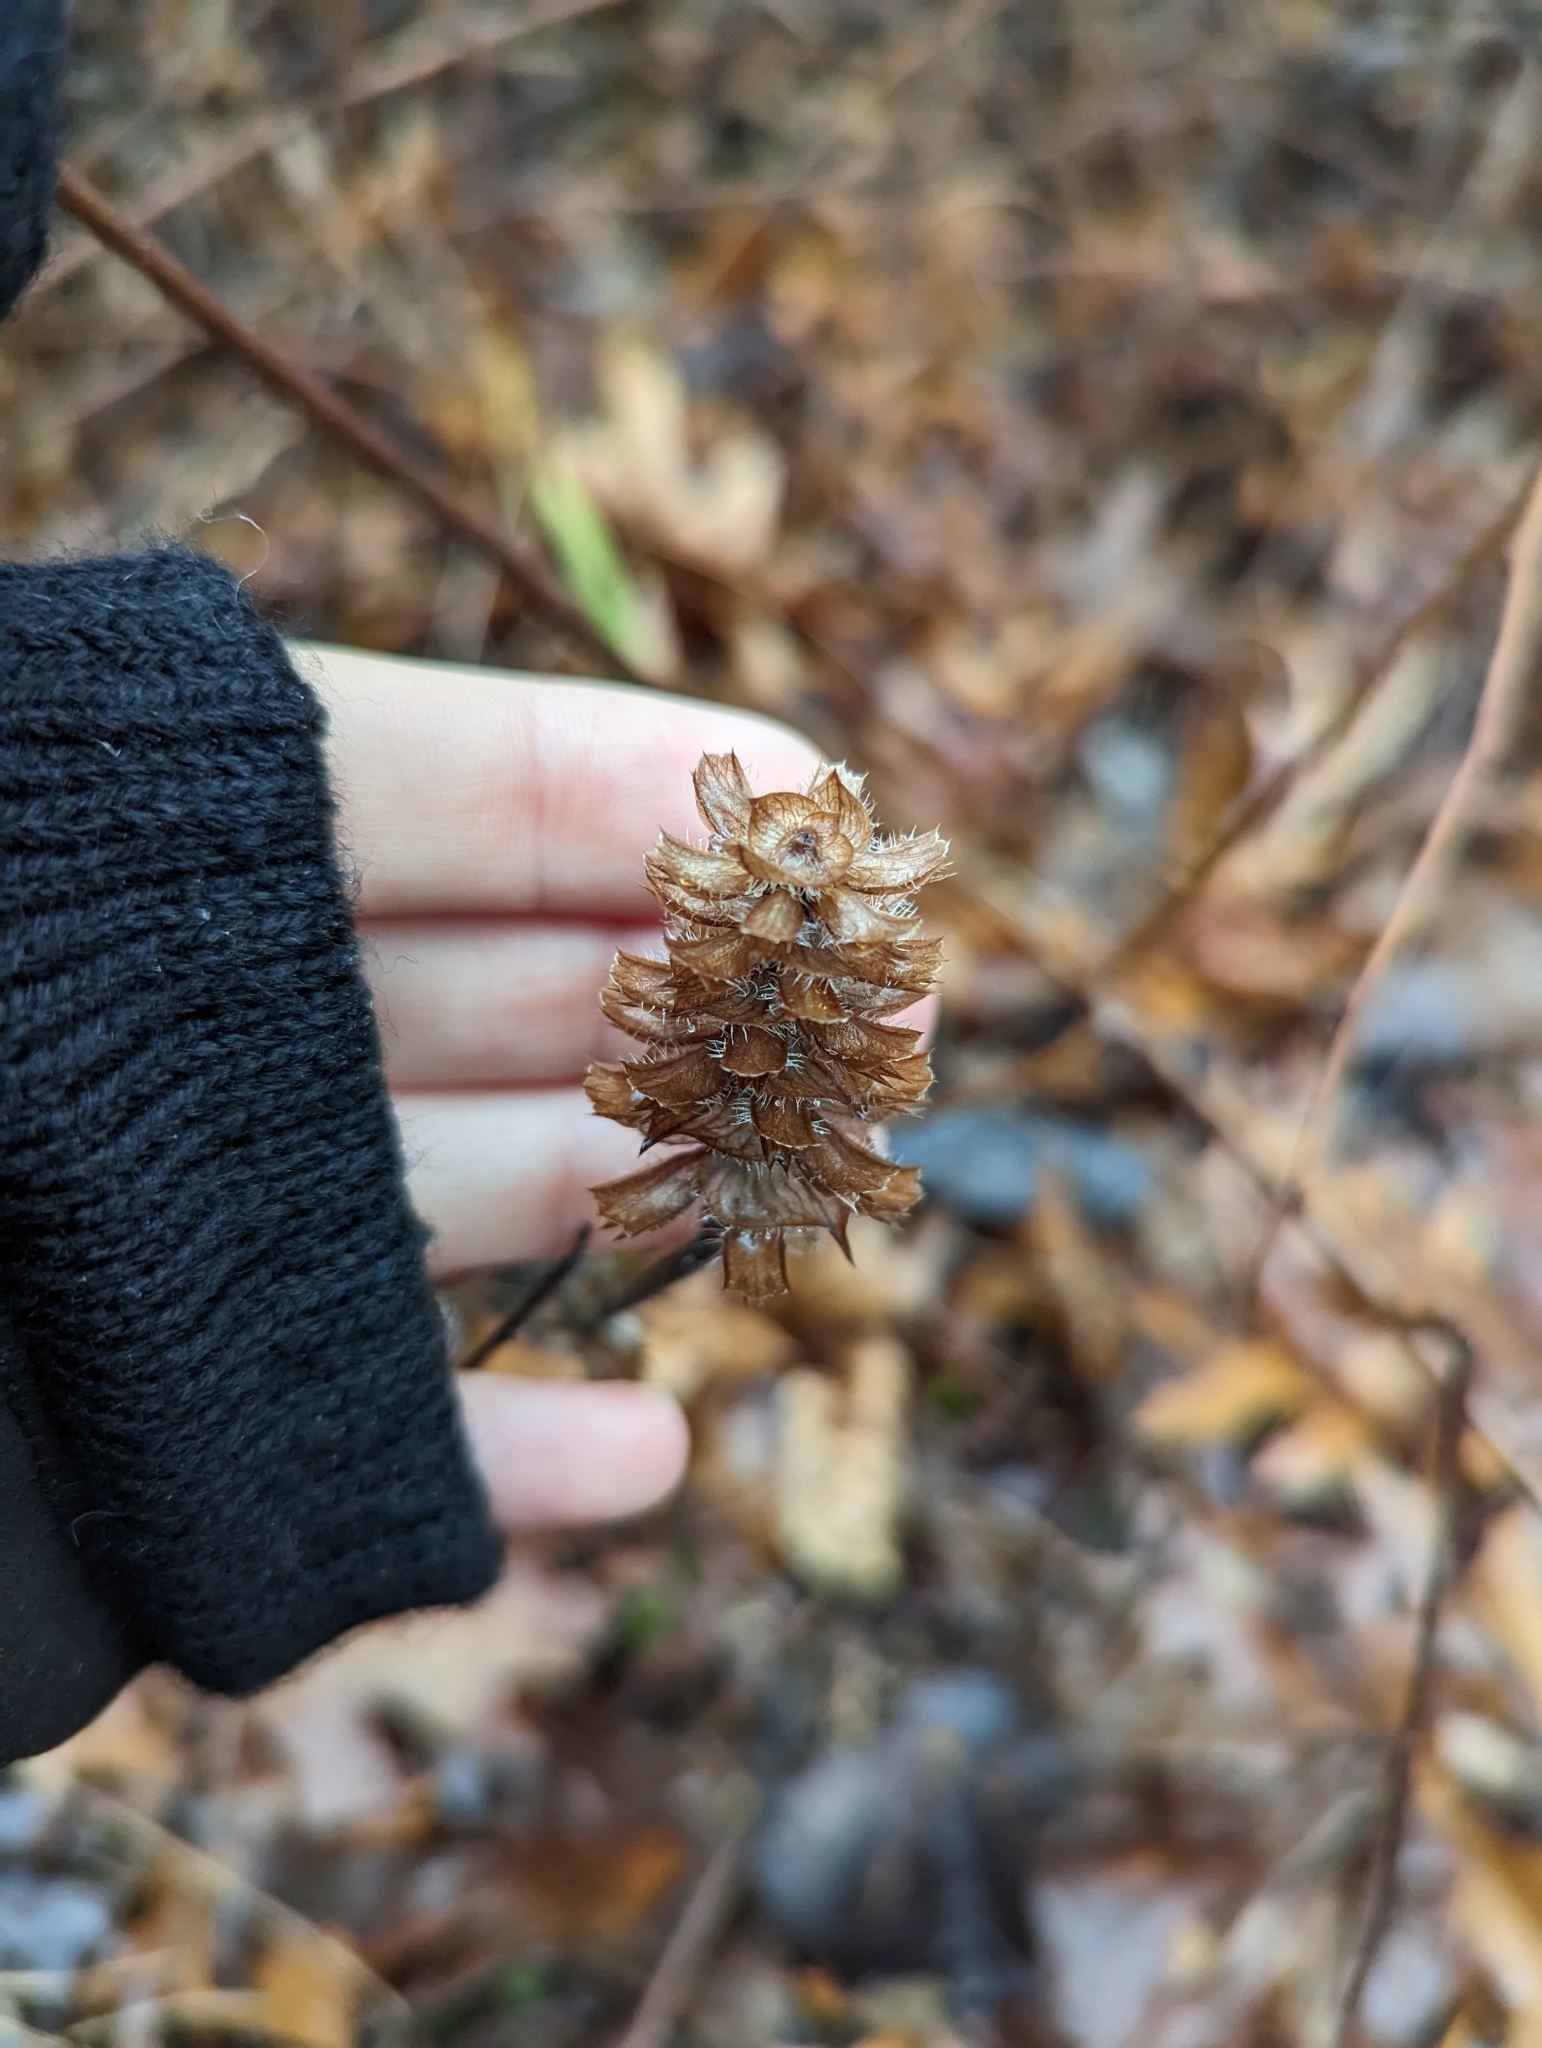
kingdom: Plantae
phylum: Tracheophyta
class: Magnoliopsida
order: Lamiales
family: Lamiaceae
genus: Prunella
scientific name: Prunella vulgaris
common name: Heal-all
